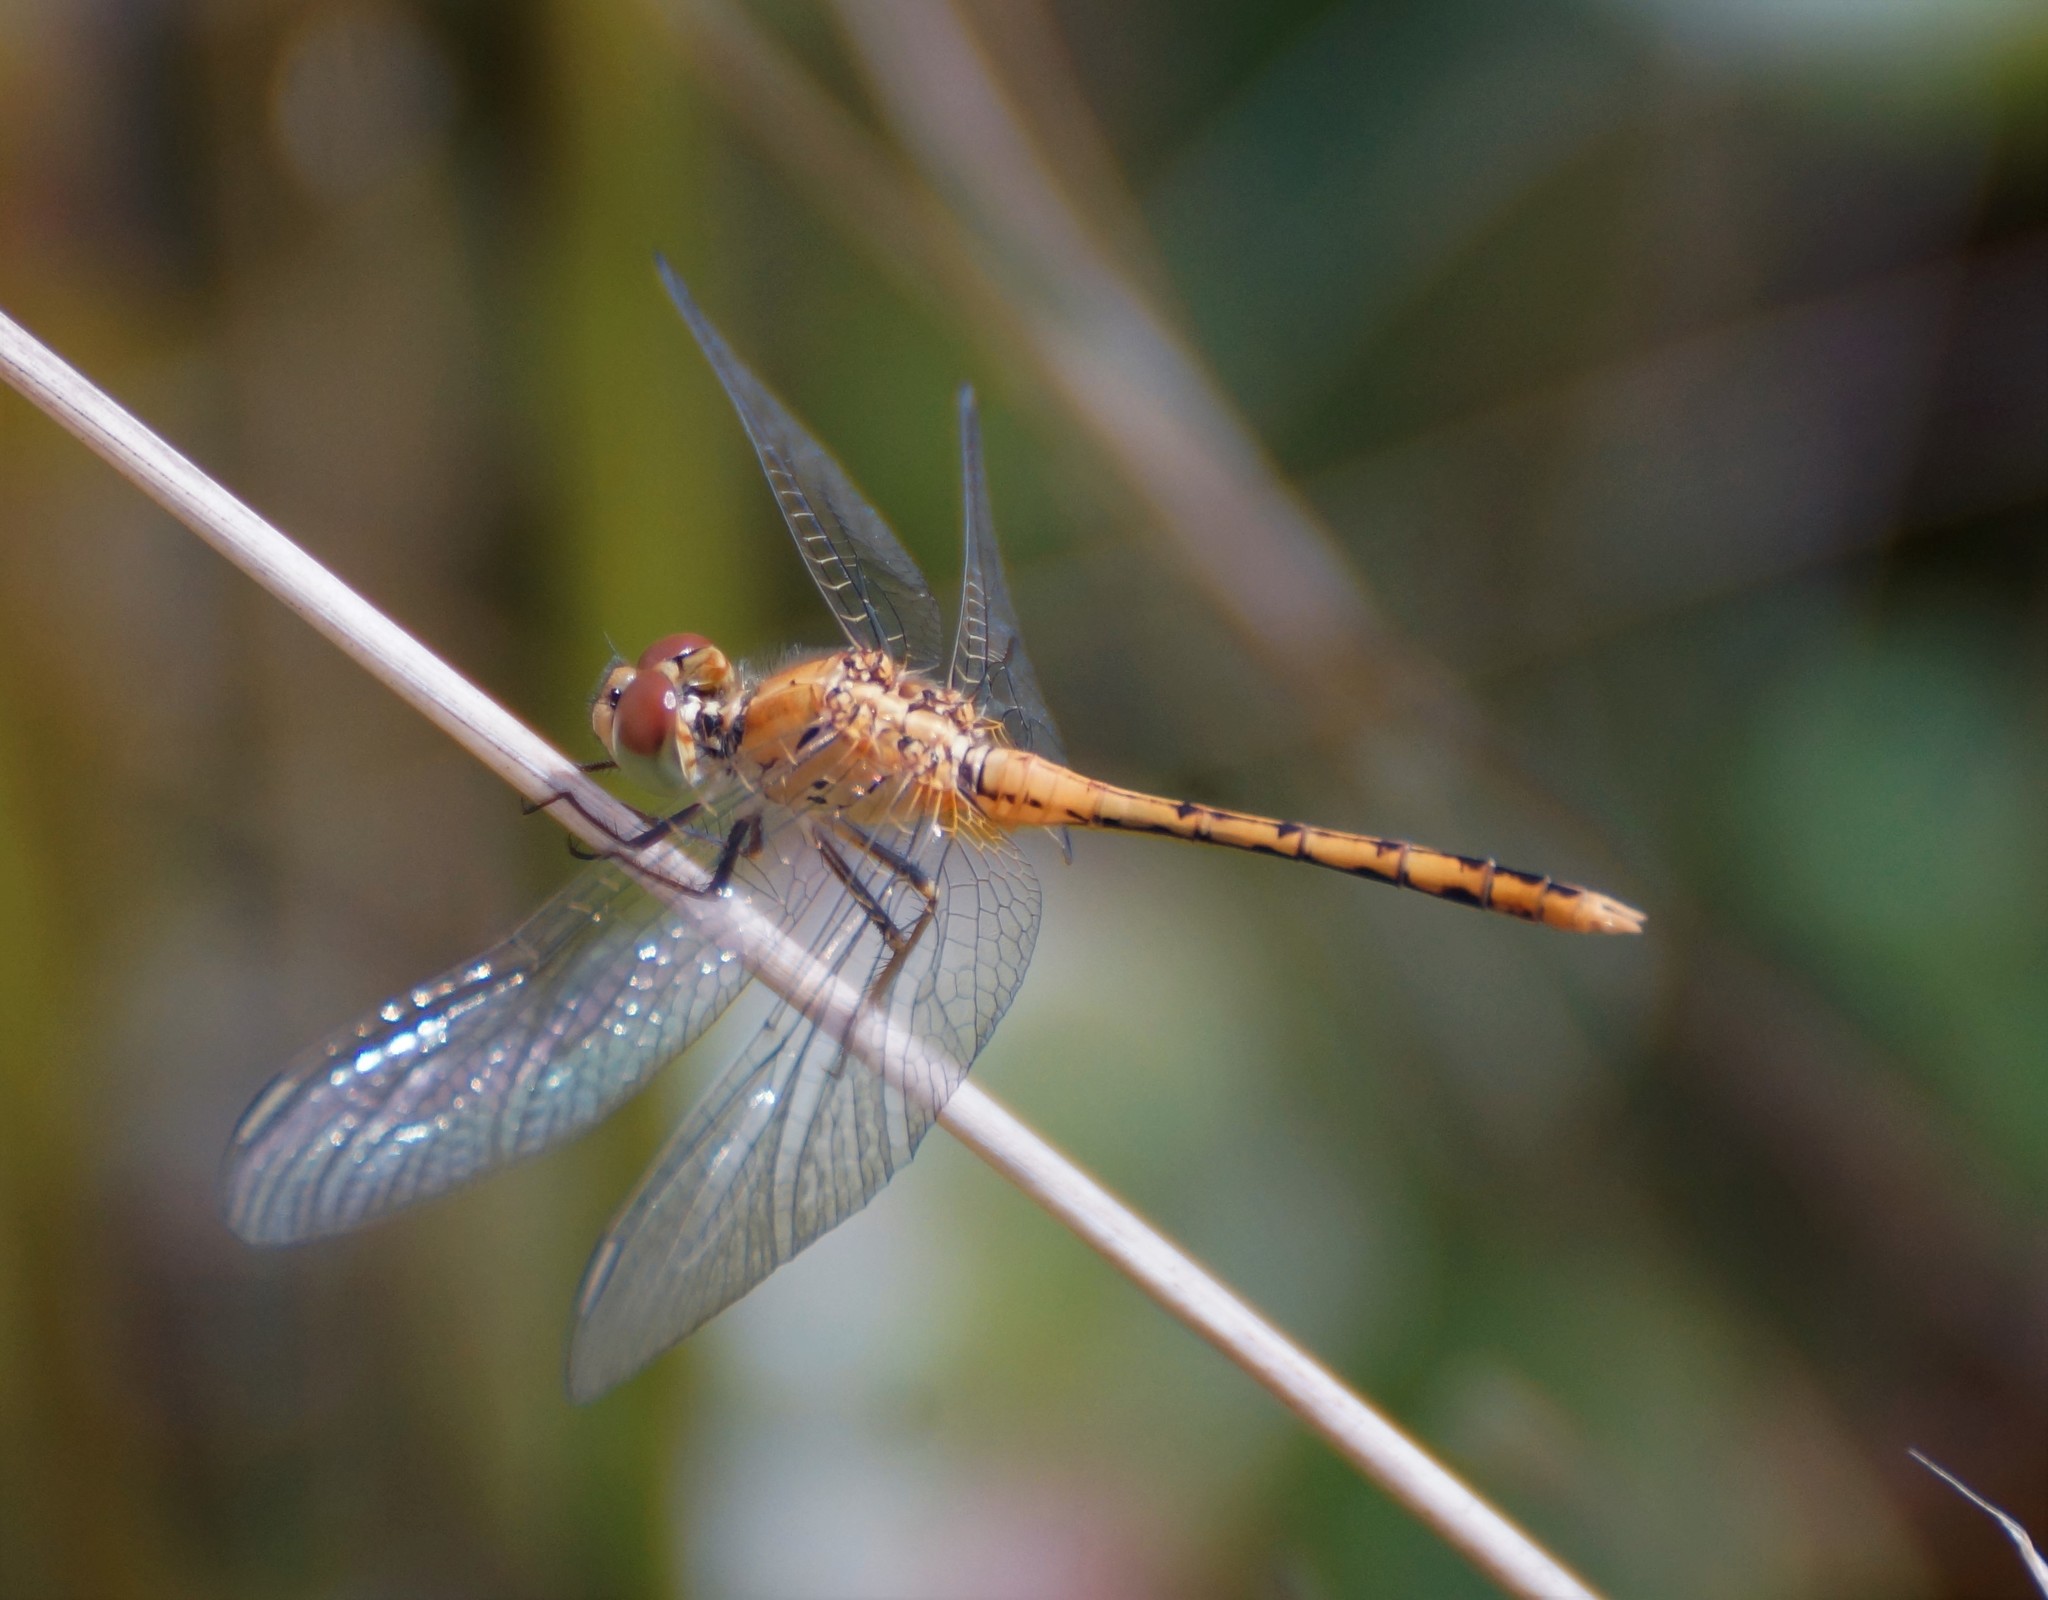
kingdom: Animalia
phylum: Arthropoda
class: Insecta
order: Odonata
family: Libellulidae
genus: Diplacodes
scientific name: Diplacodes bipunctata
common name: Red percher dragonfly
